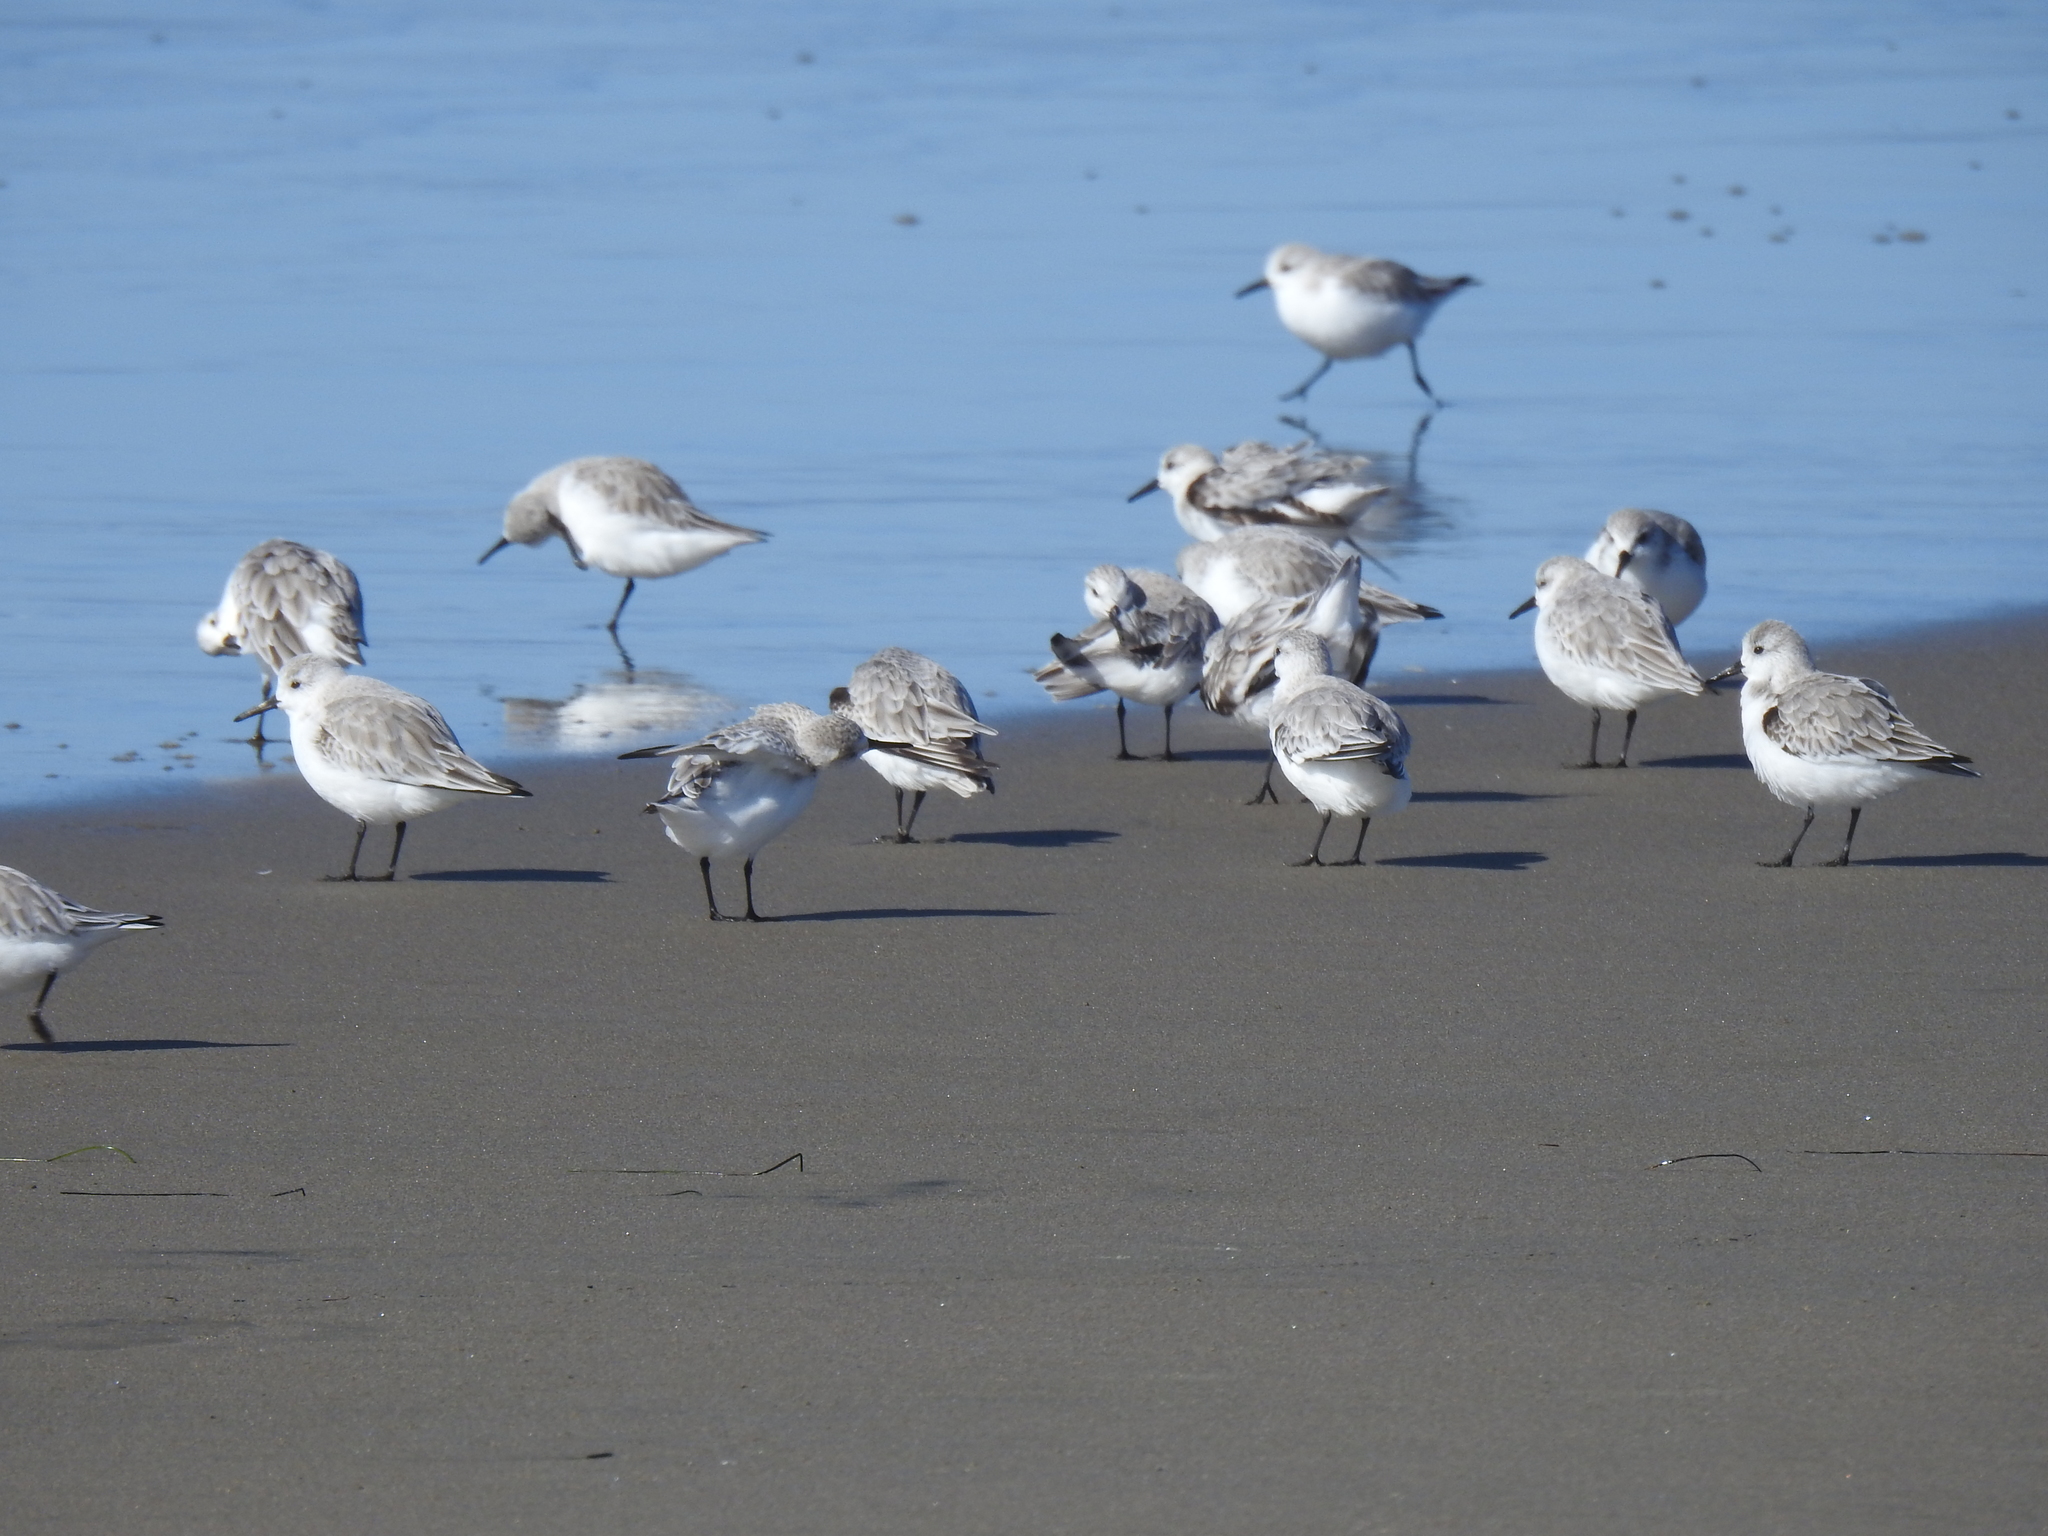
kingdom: Animalia
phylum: Chordata
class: Aves
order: Charadriiformes
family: Scolopacidae
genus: Calidris
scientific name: Calidris alba
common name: Sanderling
